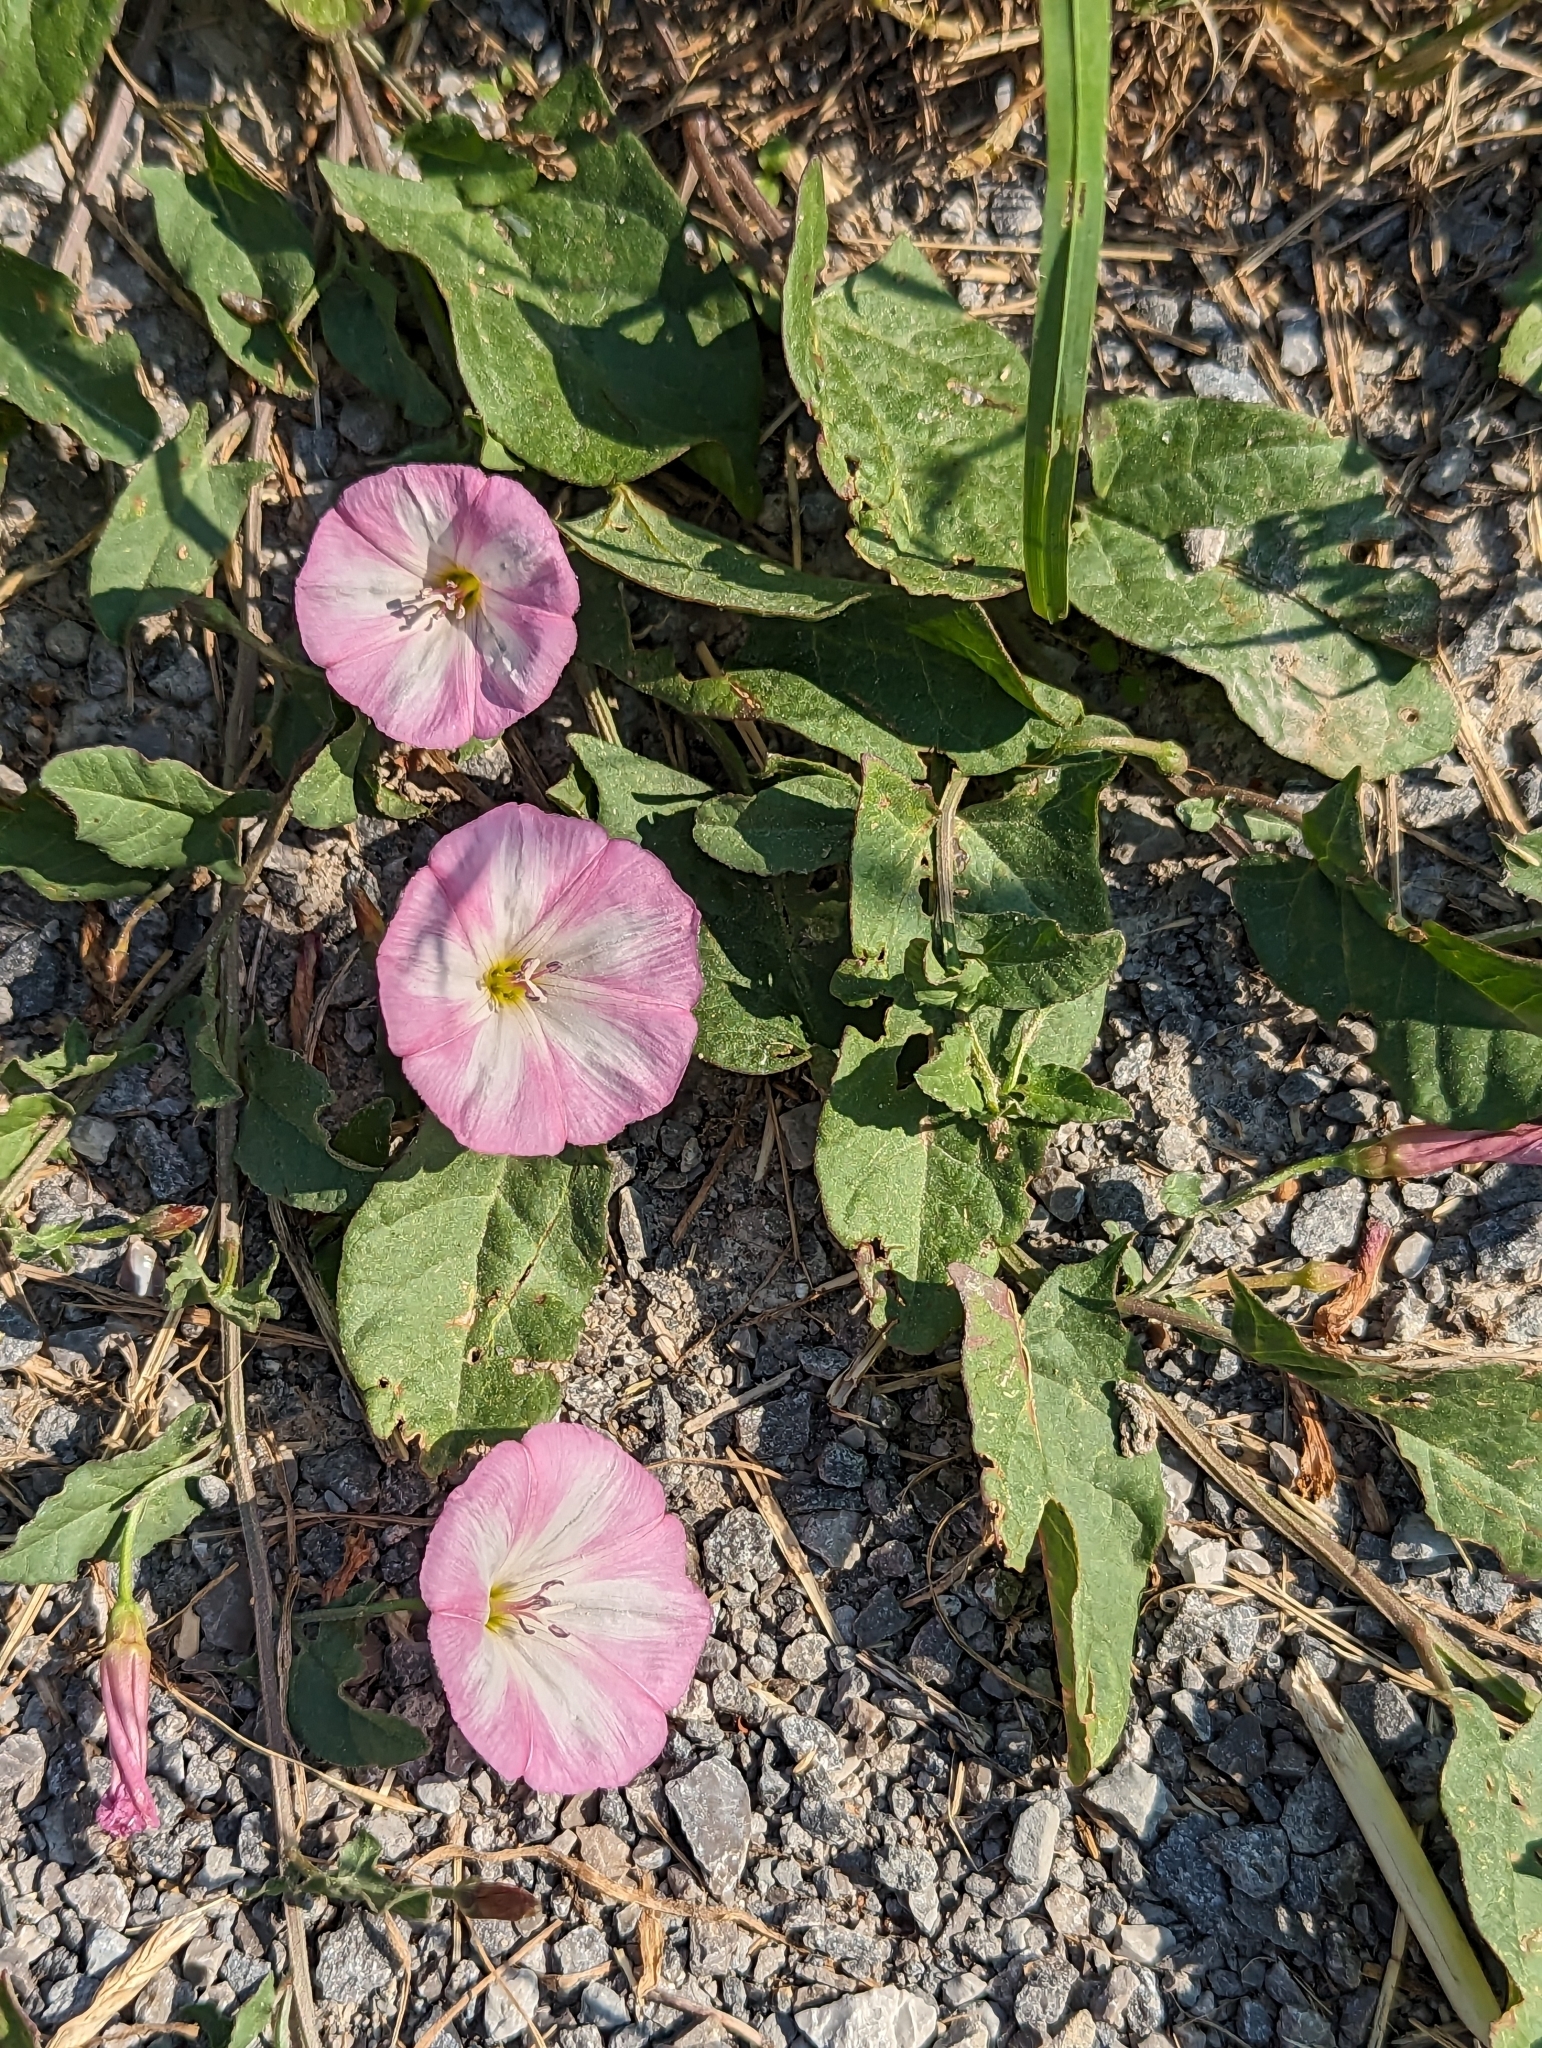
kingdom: Plantae
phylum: Tracheophyta
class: Magnoliopsida
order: Solanales
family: Convolvulaceae
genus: Convolvulus
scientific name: Convolvulus arvensis
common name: Field bindweed
